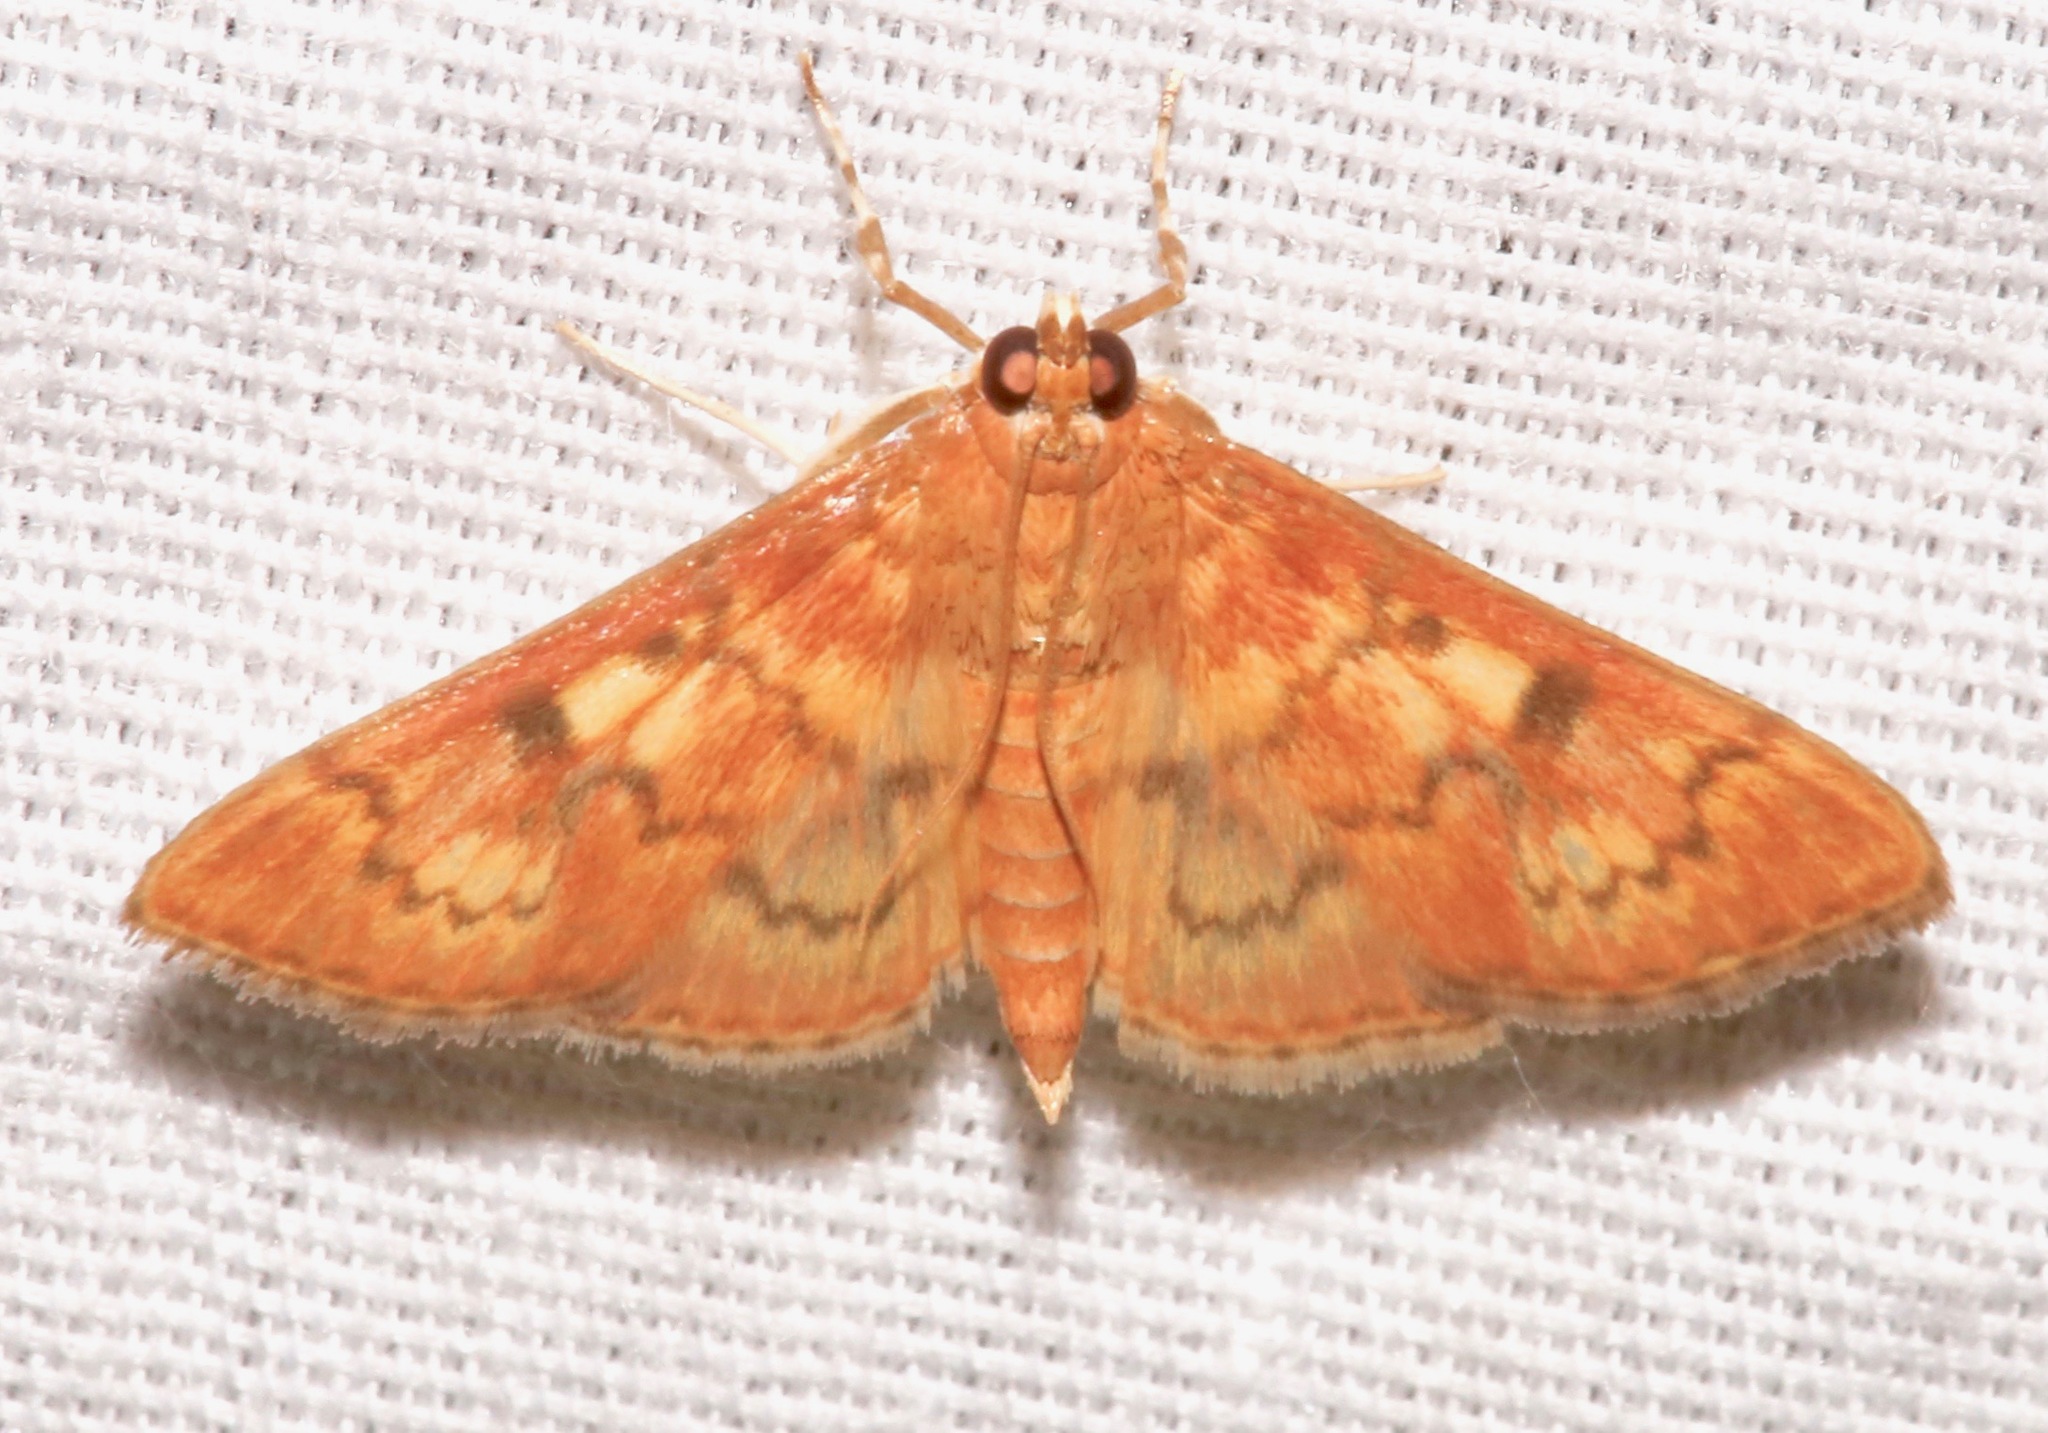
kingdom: Animalia
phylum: Arthropoda
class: Insecta
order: Lepidoptera
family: Crambidae
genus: Pilocrocis
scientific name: Pilocrocis dryalis
